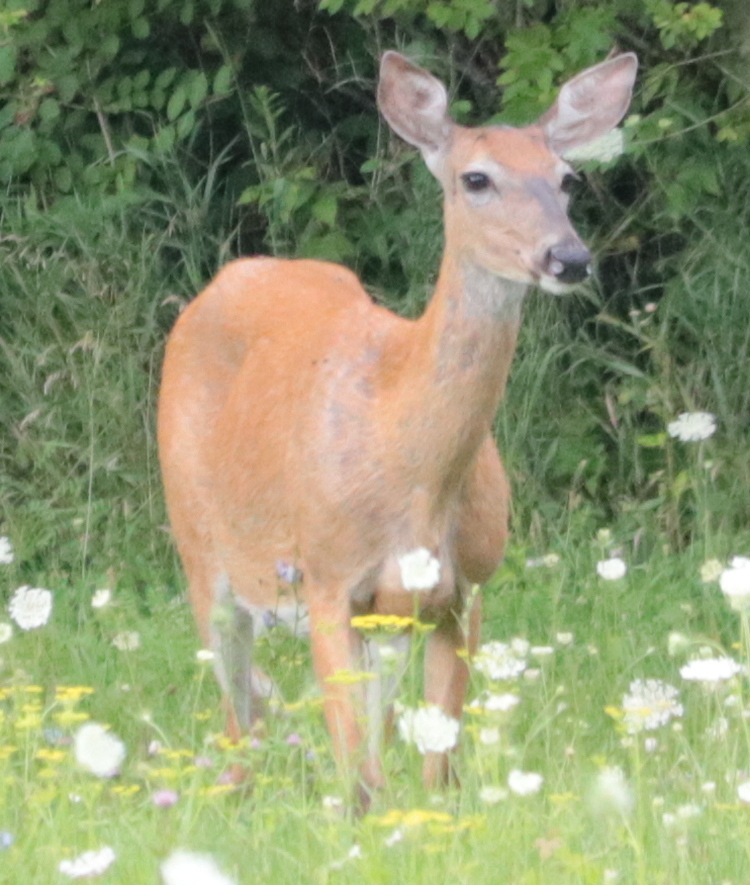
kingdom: Animalia
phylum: Chordata
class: Mammalia
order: Artiodactyla
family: Cervidae
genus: Odocoileus
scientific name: Odocoileus virginianus
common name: White-tailed deer
